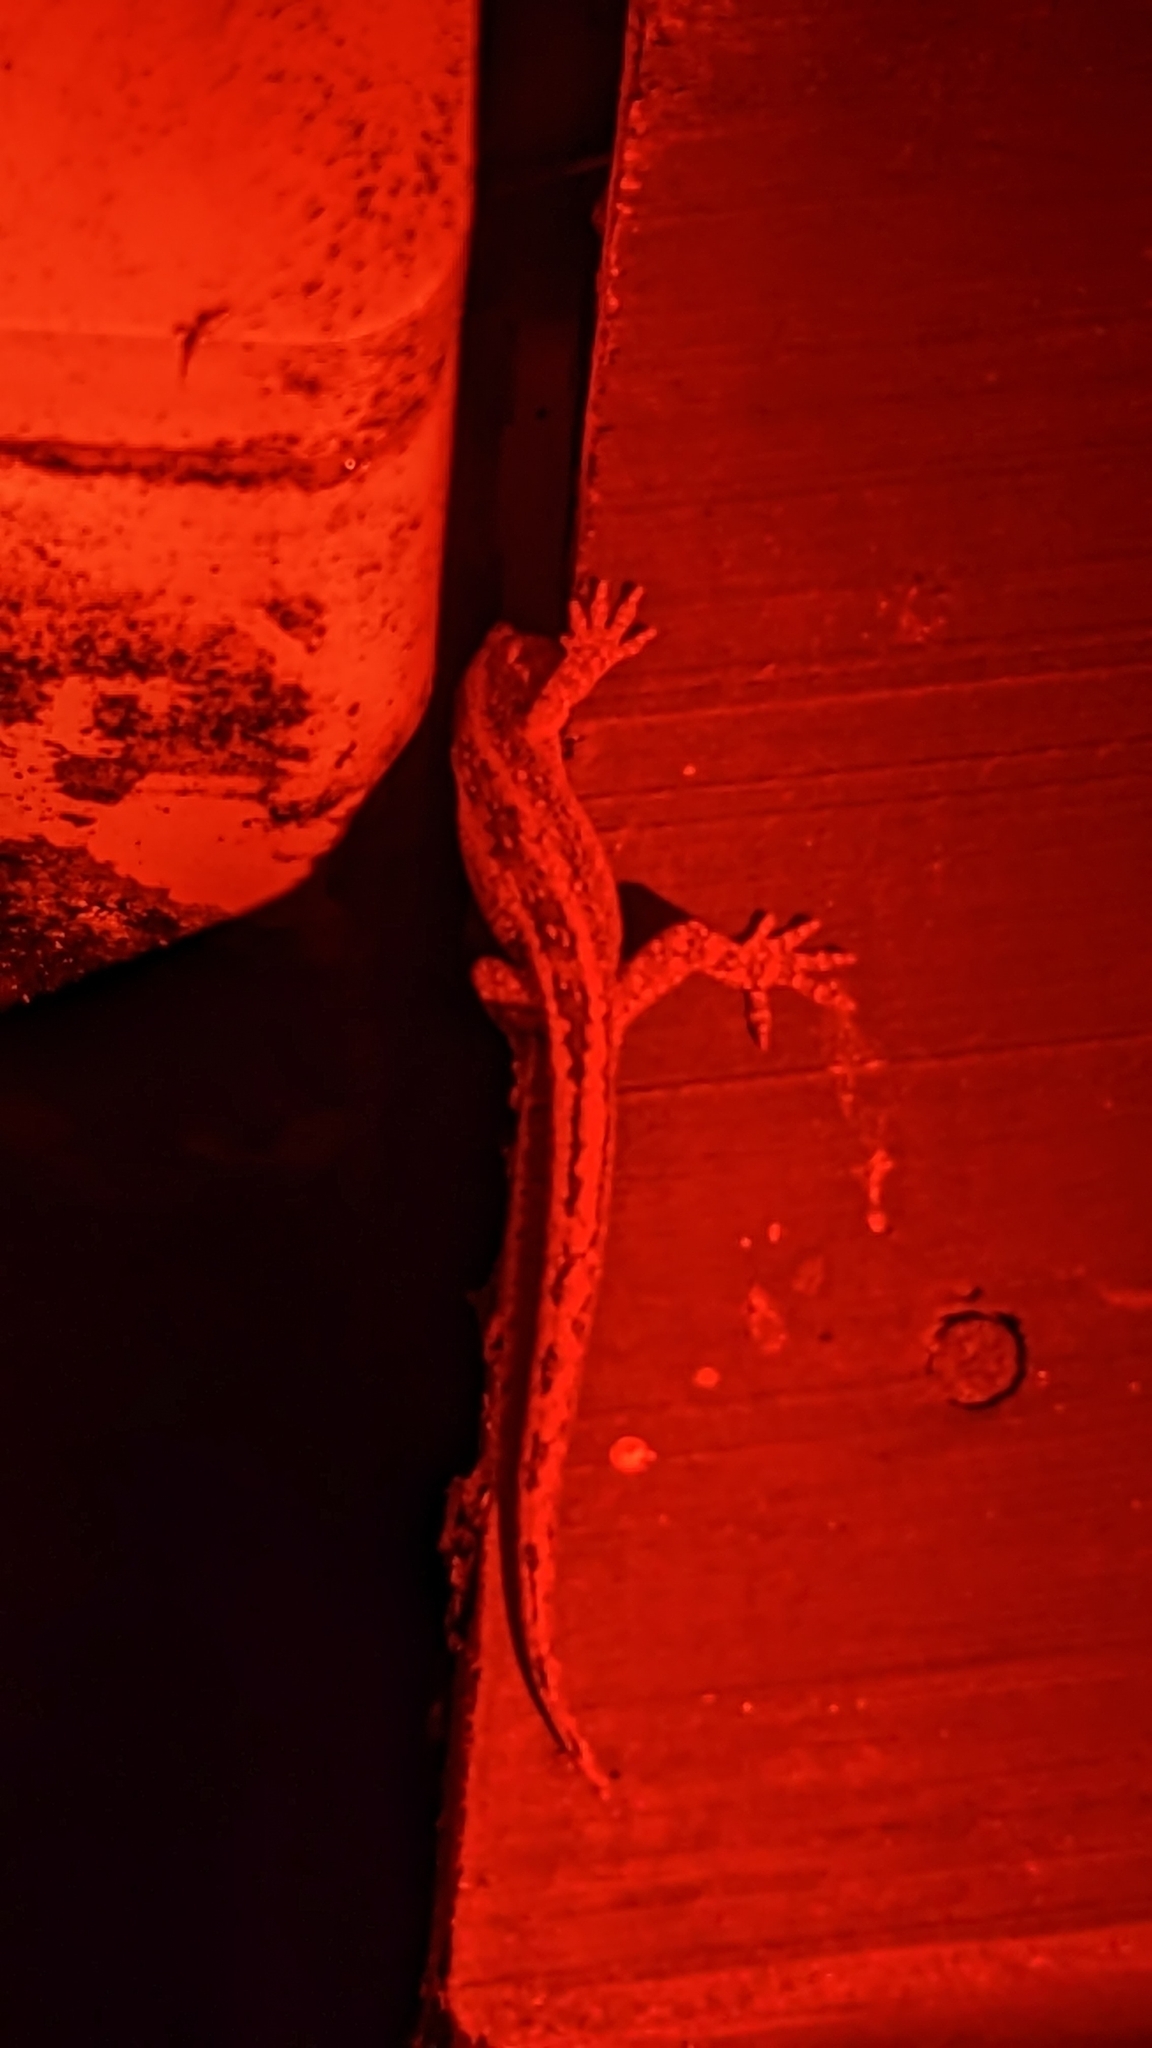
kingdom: Animalia
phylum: Chordata
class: Squamata
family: Diplodactylidae
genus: Woodworthia
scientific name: Woodworthia maculata
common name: Raukawa gecko
